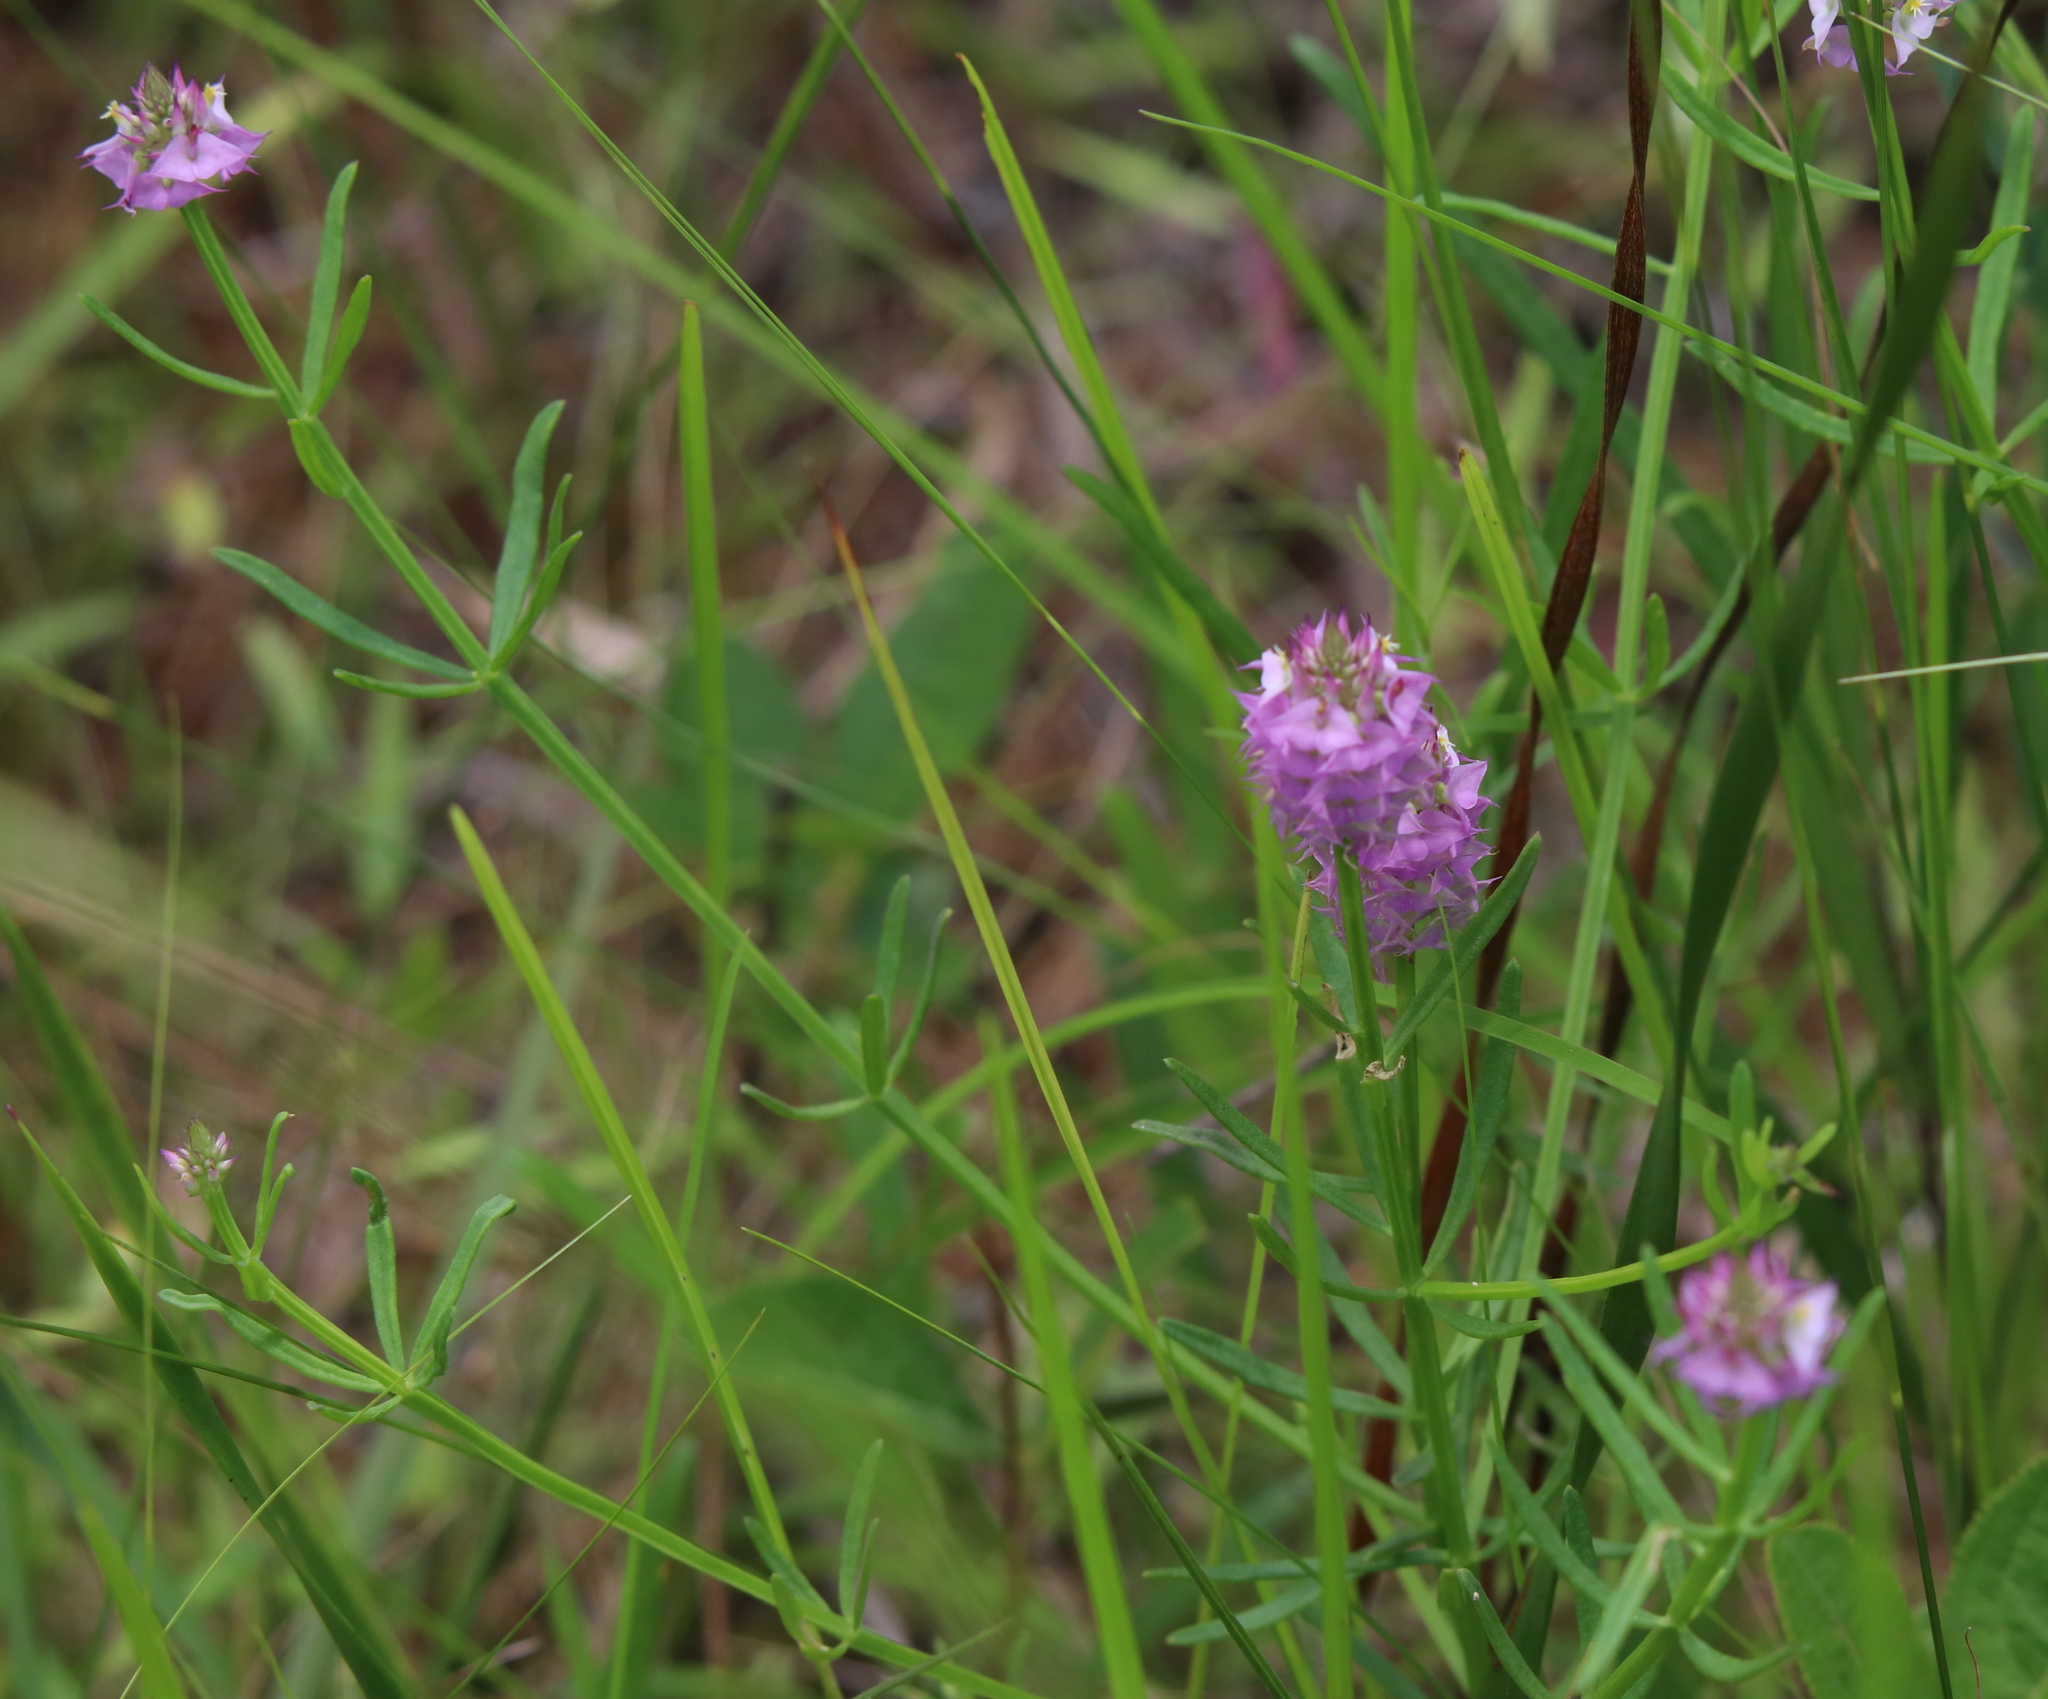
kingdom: Plantae
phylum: Tracheophyta
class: Magnoliopsida
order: Fabales
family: Polygalaceae
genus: Polygala
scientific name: Polygala cruciata
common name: Drumheads
